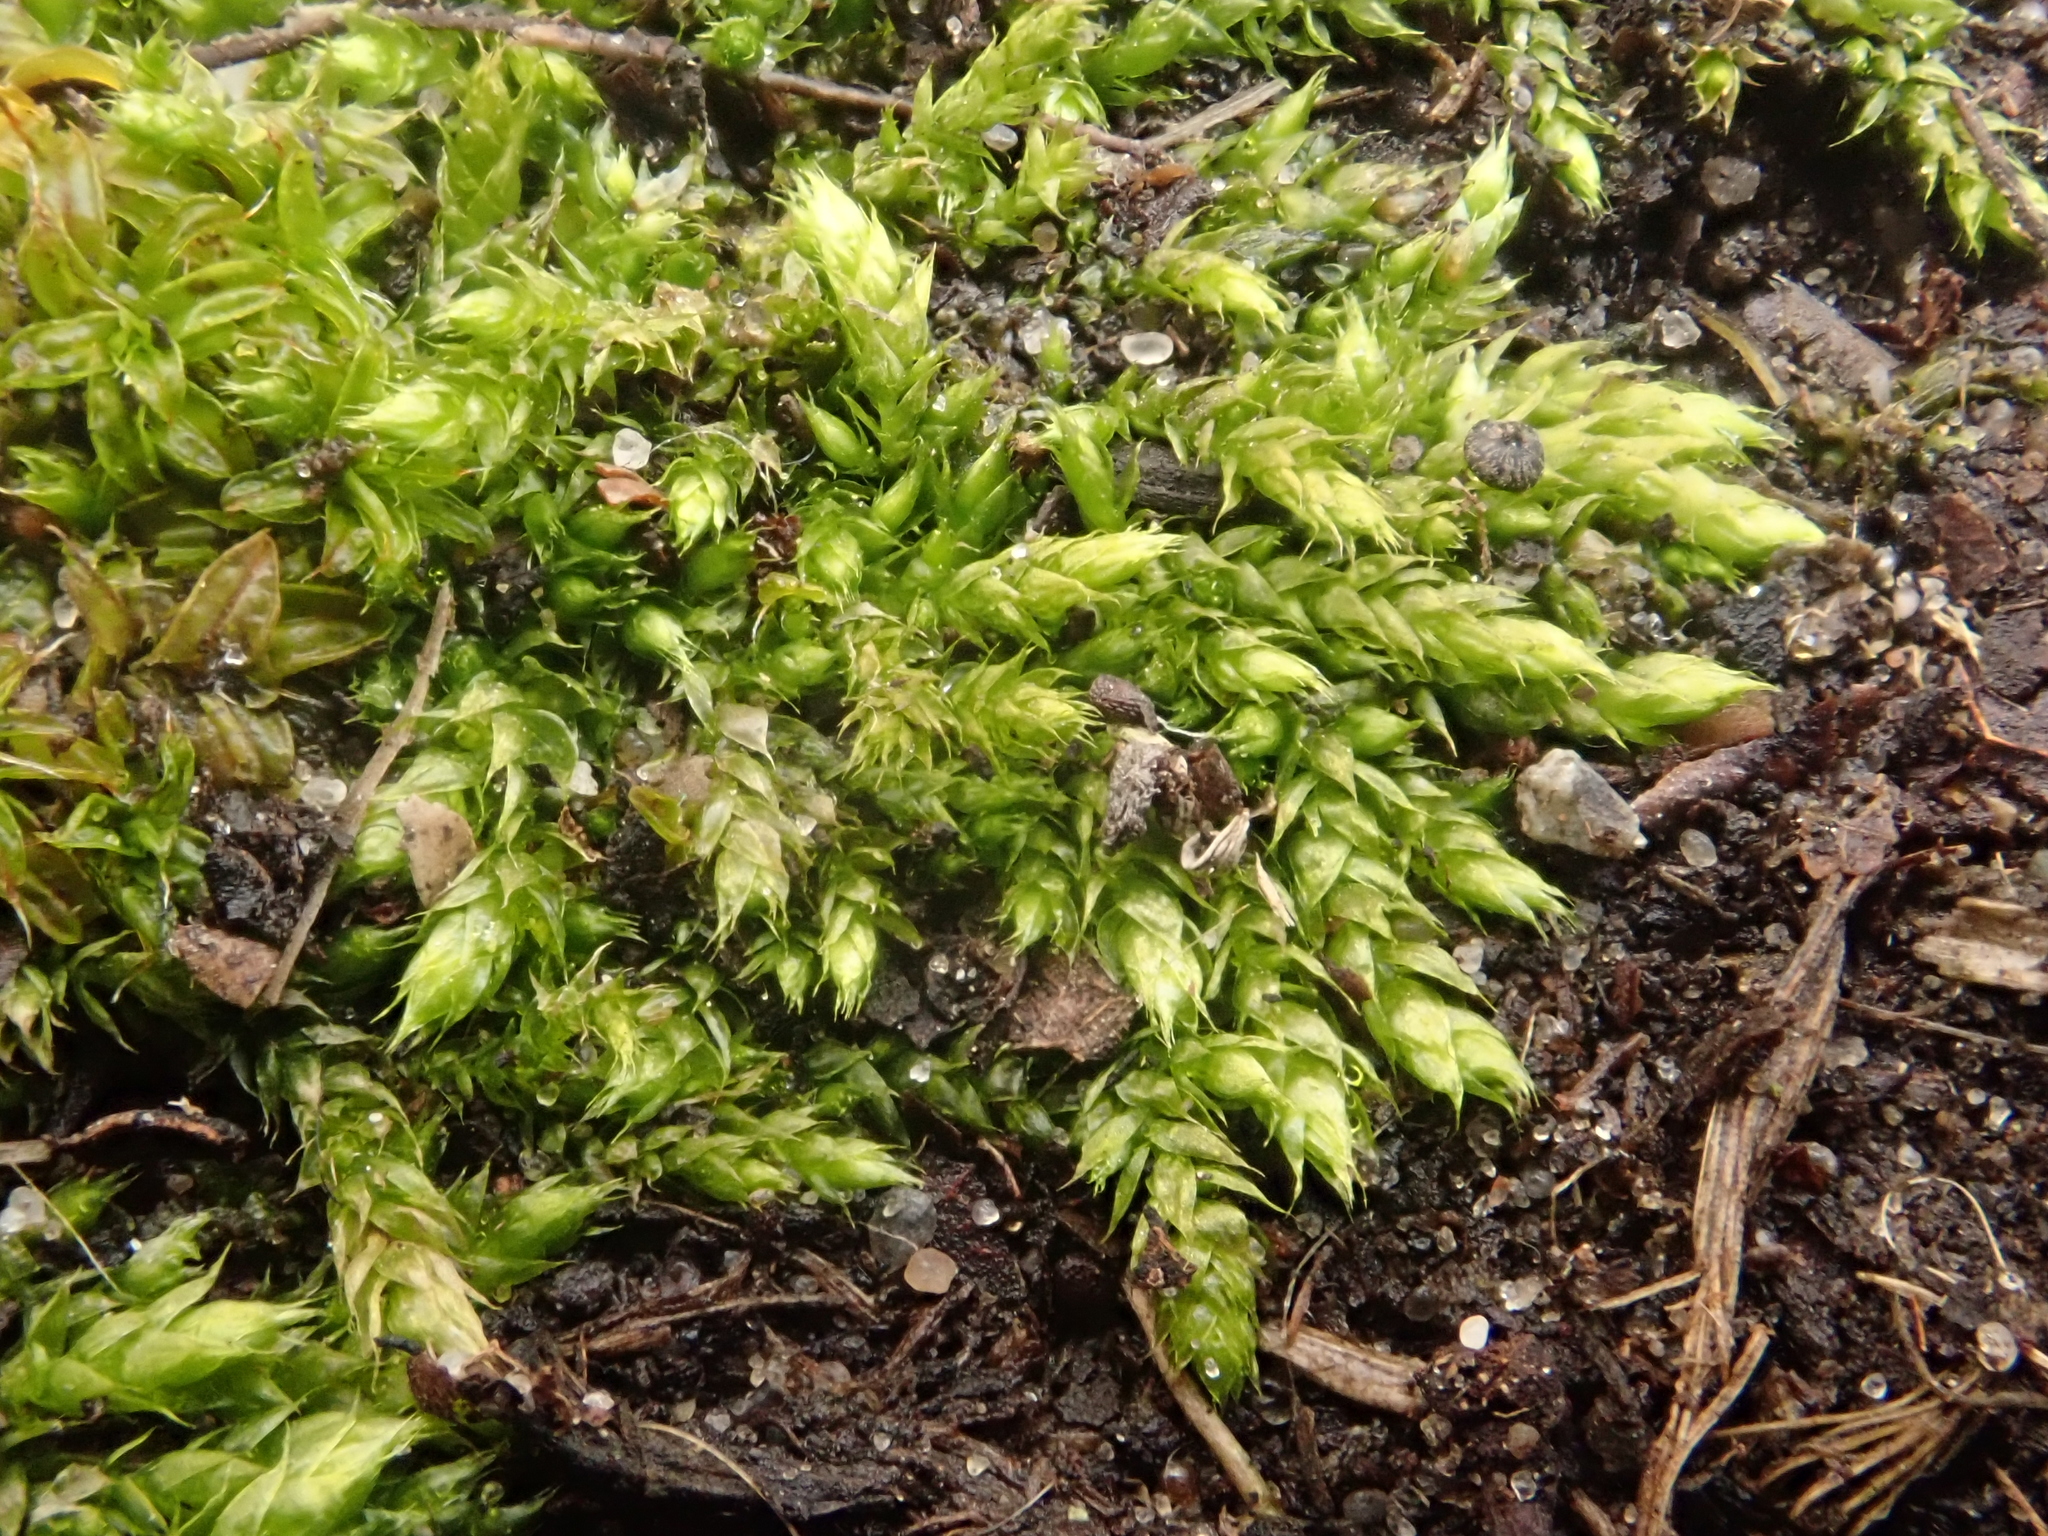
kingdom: Plantae
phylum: Bryophyta
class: Bryopsida
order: Hypnales
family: Brachytheciaceae
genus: Brachythecium
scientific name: Brachythecium rutabulum
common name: Rough-stalked feather-moss
